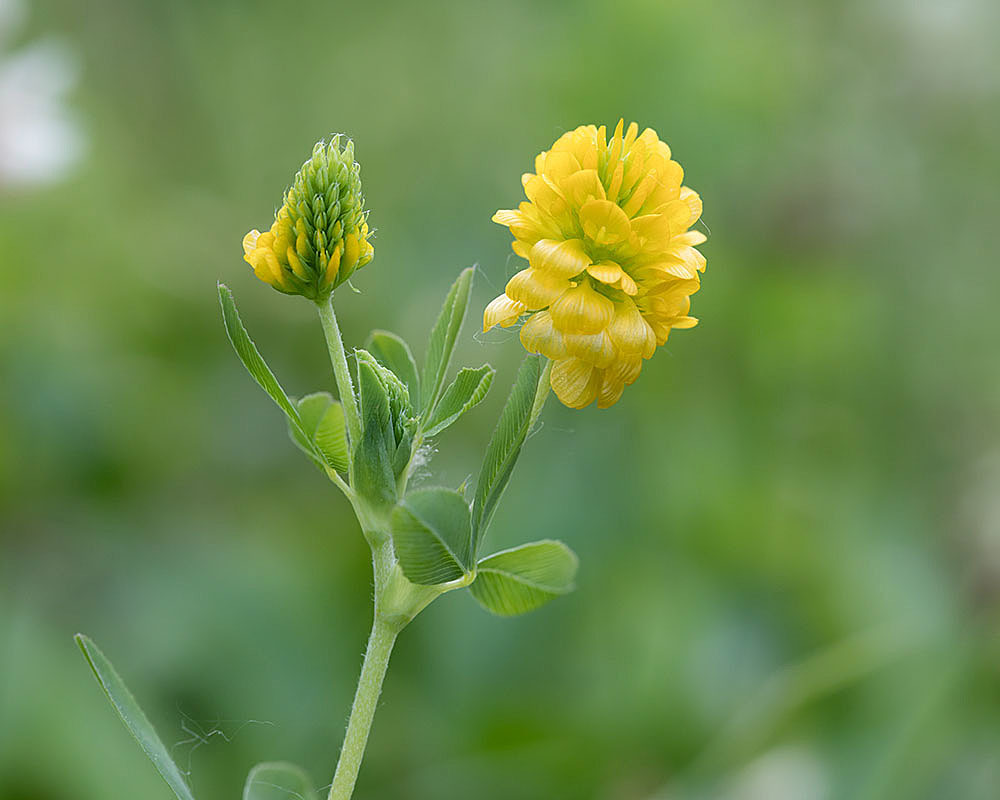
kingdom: Plantae
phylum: Tracheophyta
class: Magnoliopsida
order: Fabales
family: Fabaceae
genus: Trifolium
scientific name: Trifolium aureum
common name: Golden clover
